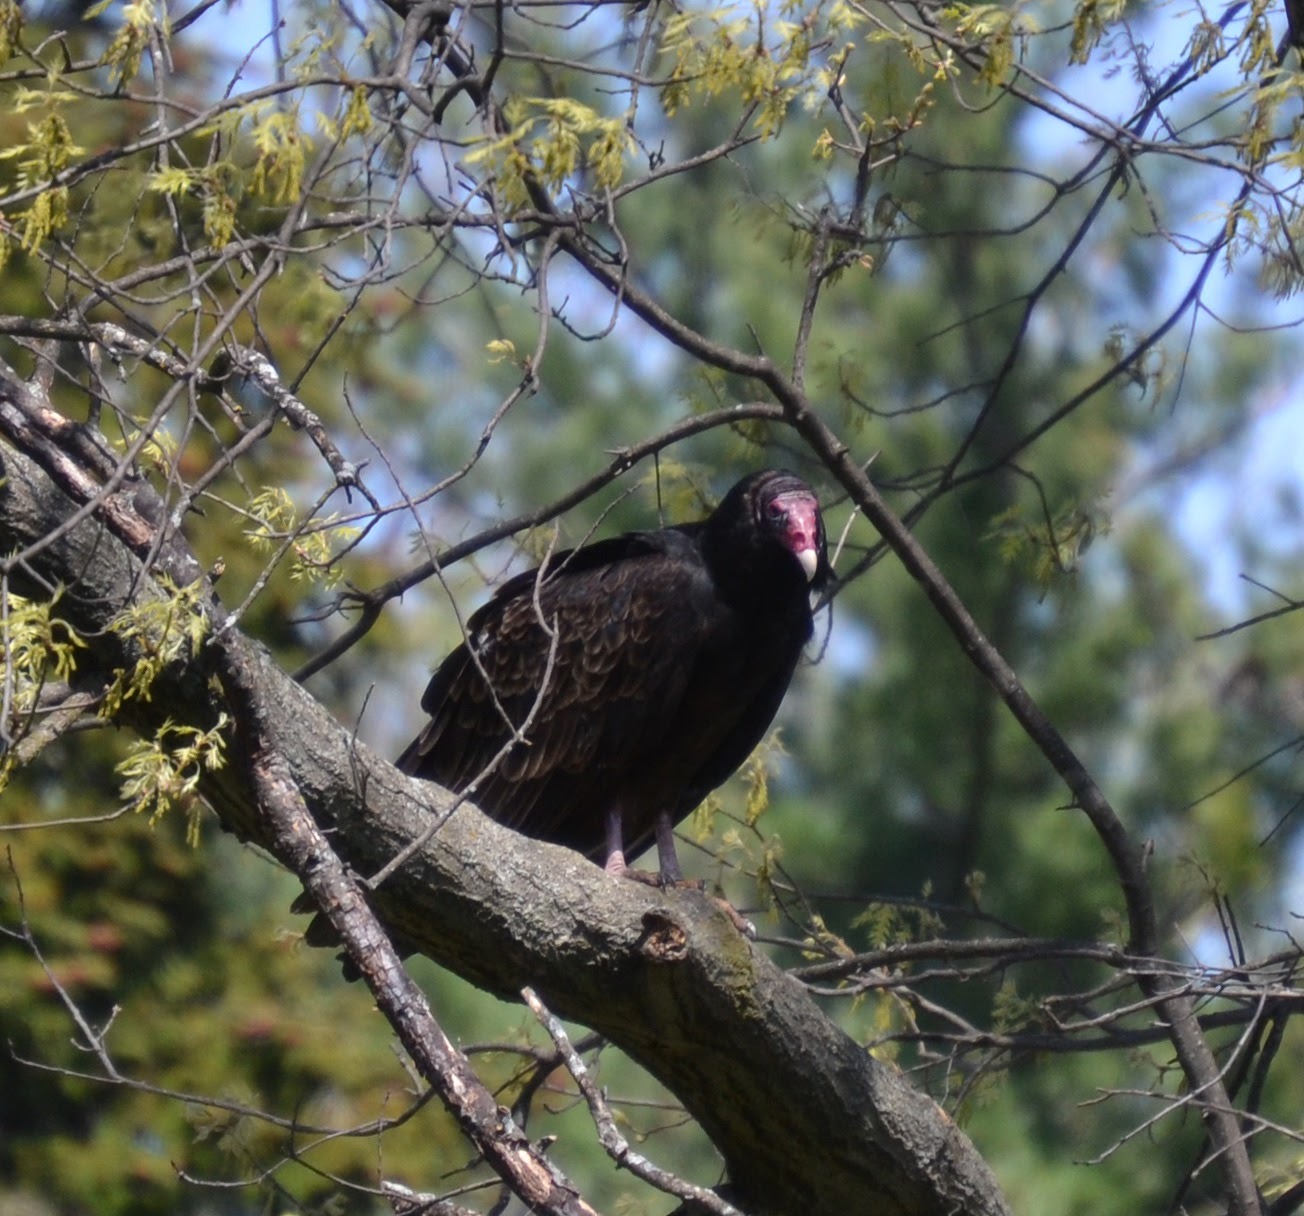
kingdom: Animalia
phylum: Chordata
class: Aves
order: Accipitriformes
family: Cathartidae
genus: Cathartes
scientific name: Cathartes aura
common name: Turkey vulture
